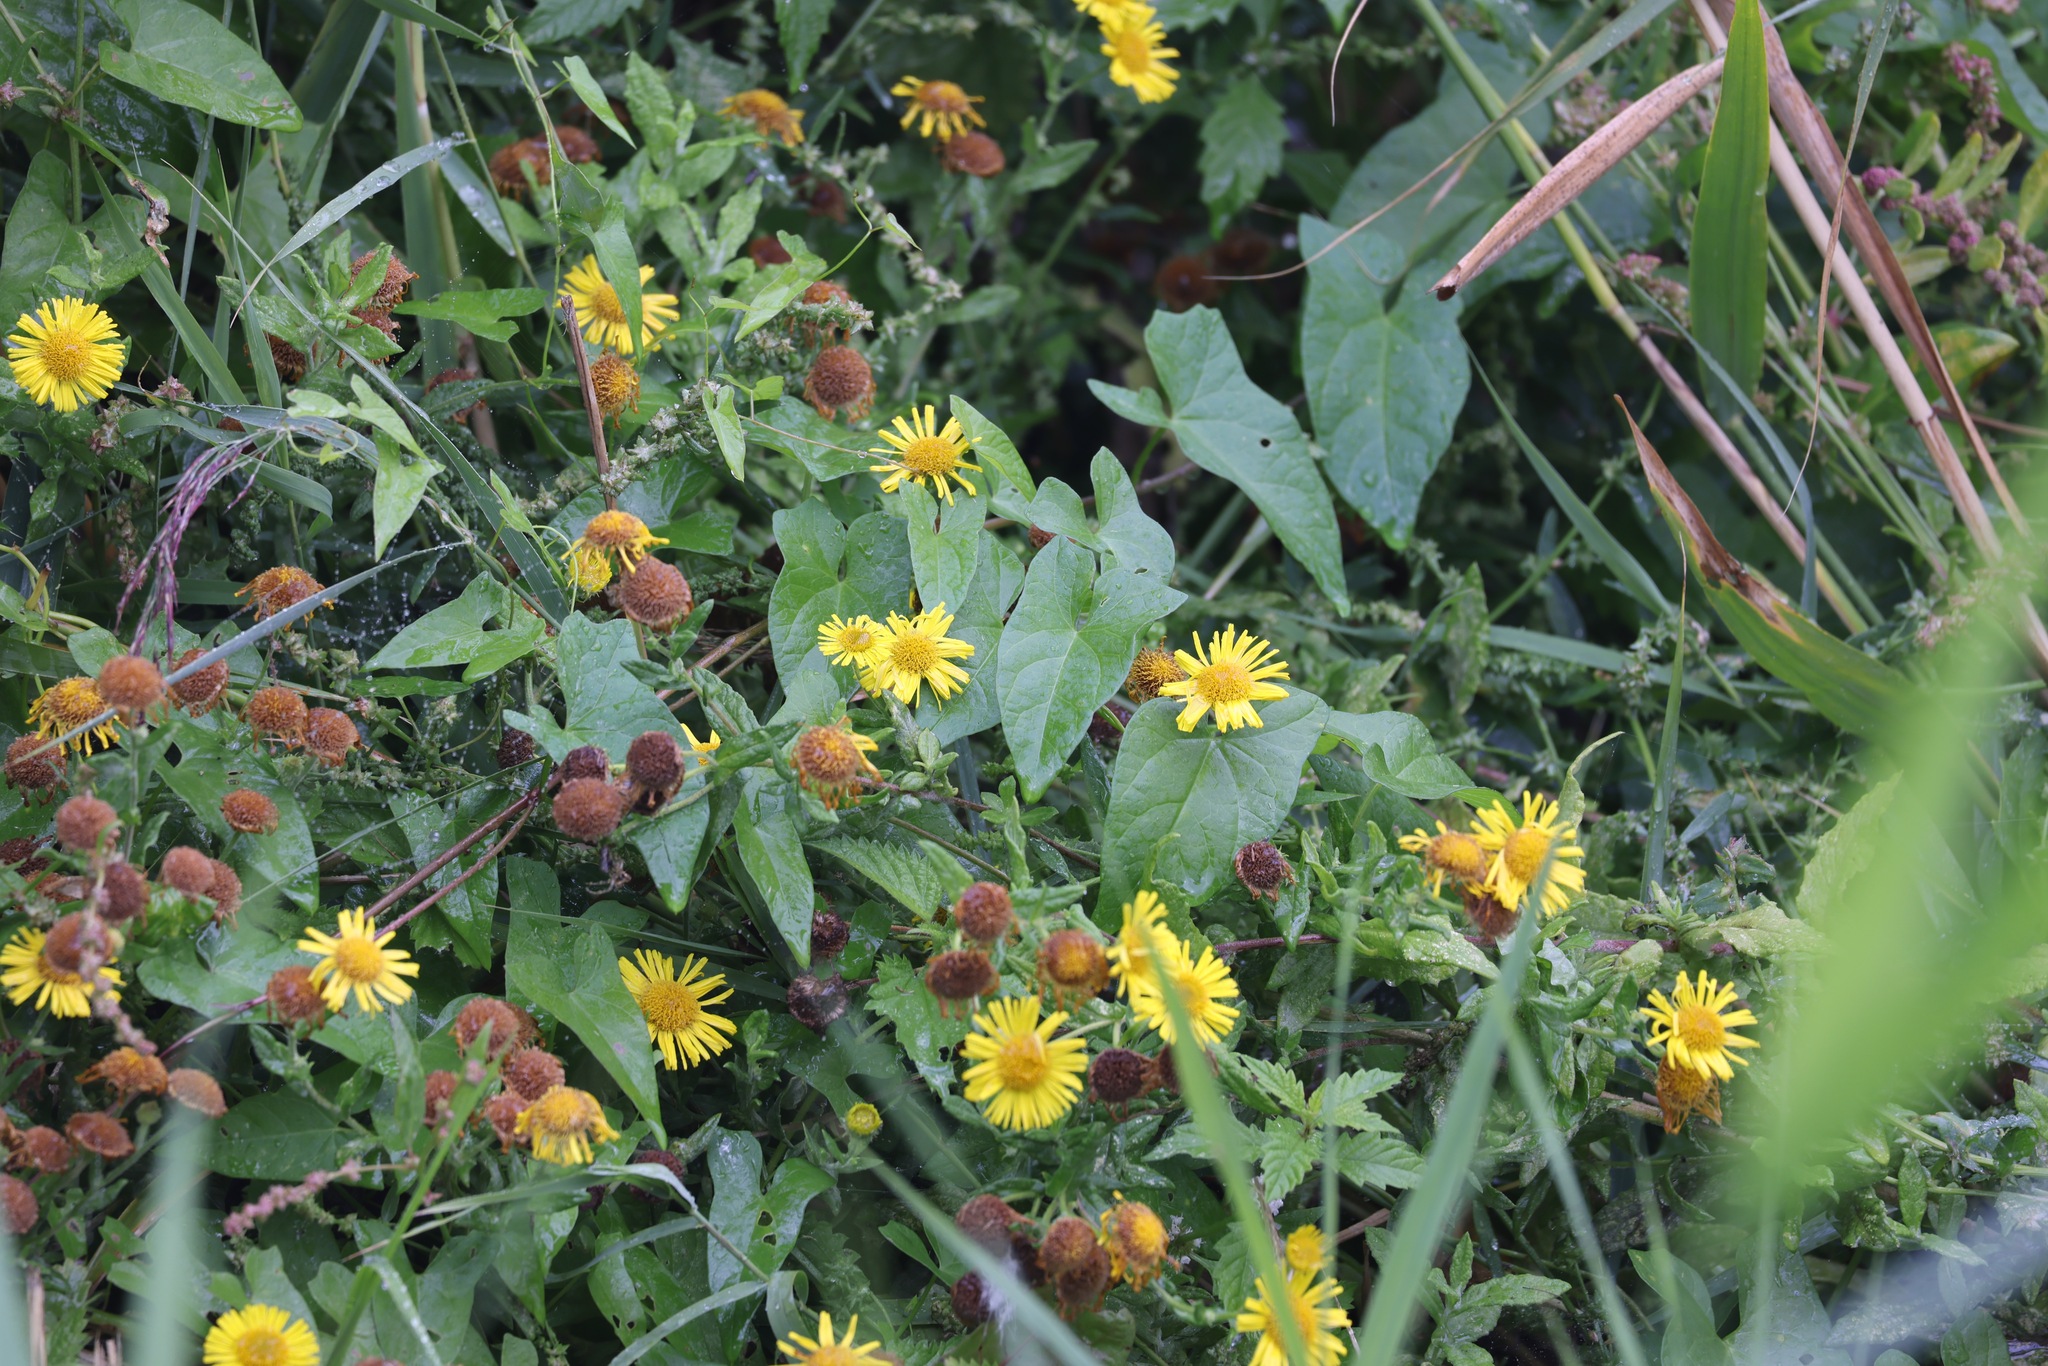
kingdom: Plantae
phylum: Tracheophyta
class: Magnoliopsida
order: Asterales
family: Asteraceae
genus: Pulicaria
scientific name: Pulicaria dysenterica
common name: Common fleabane
